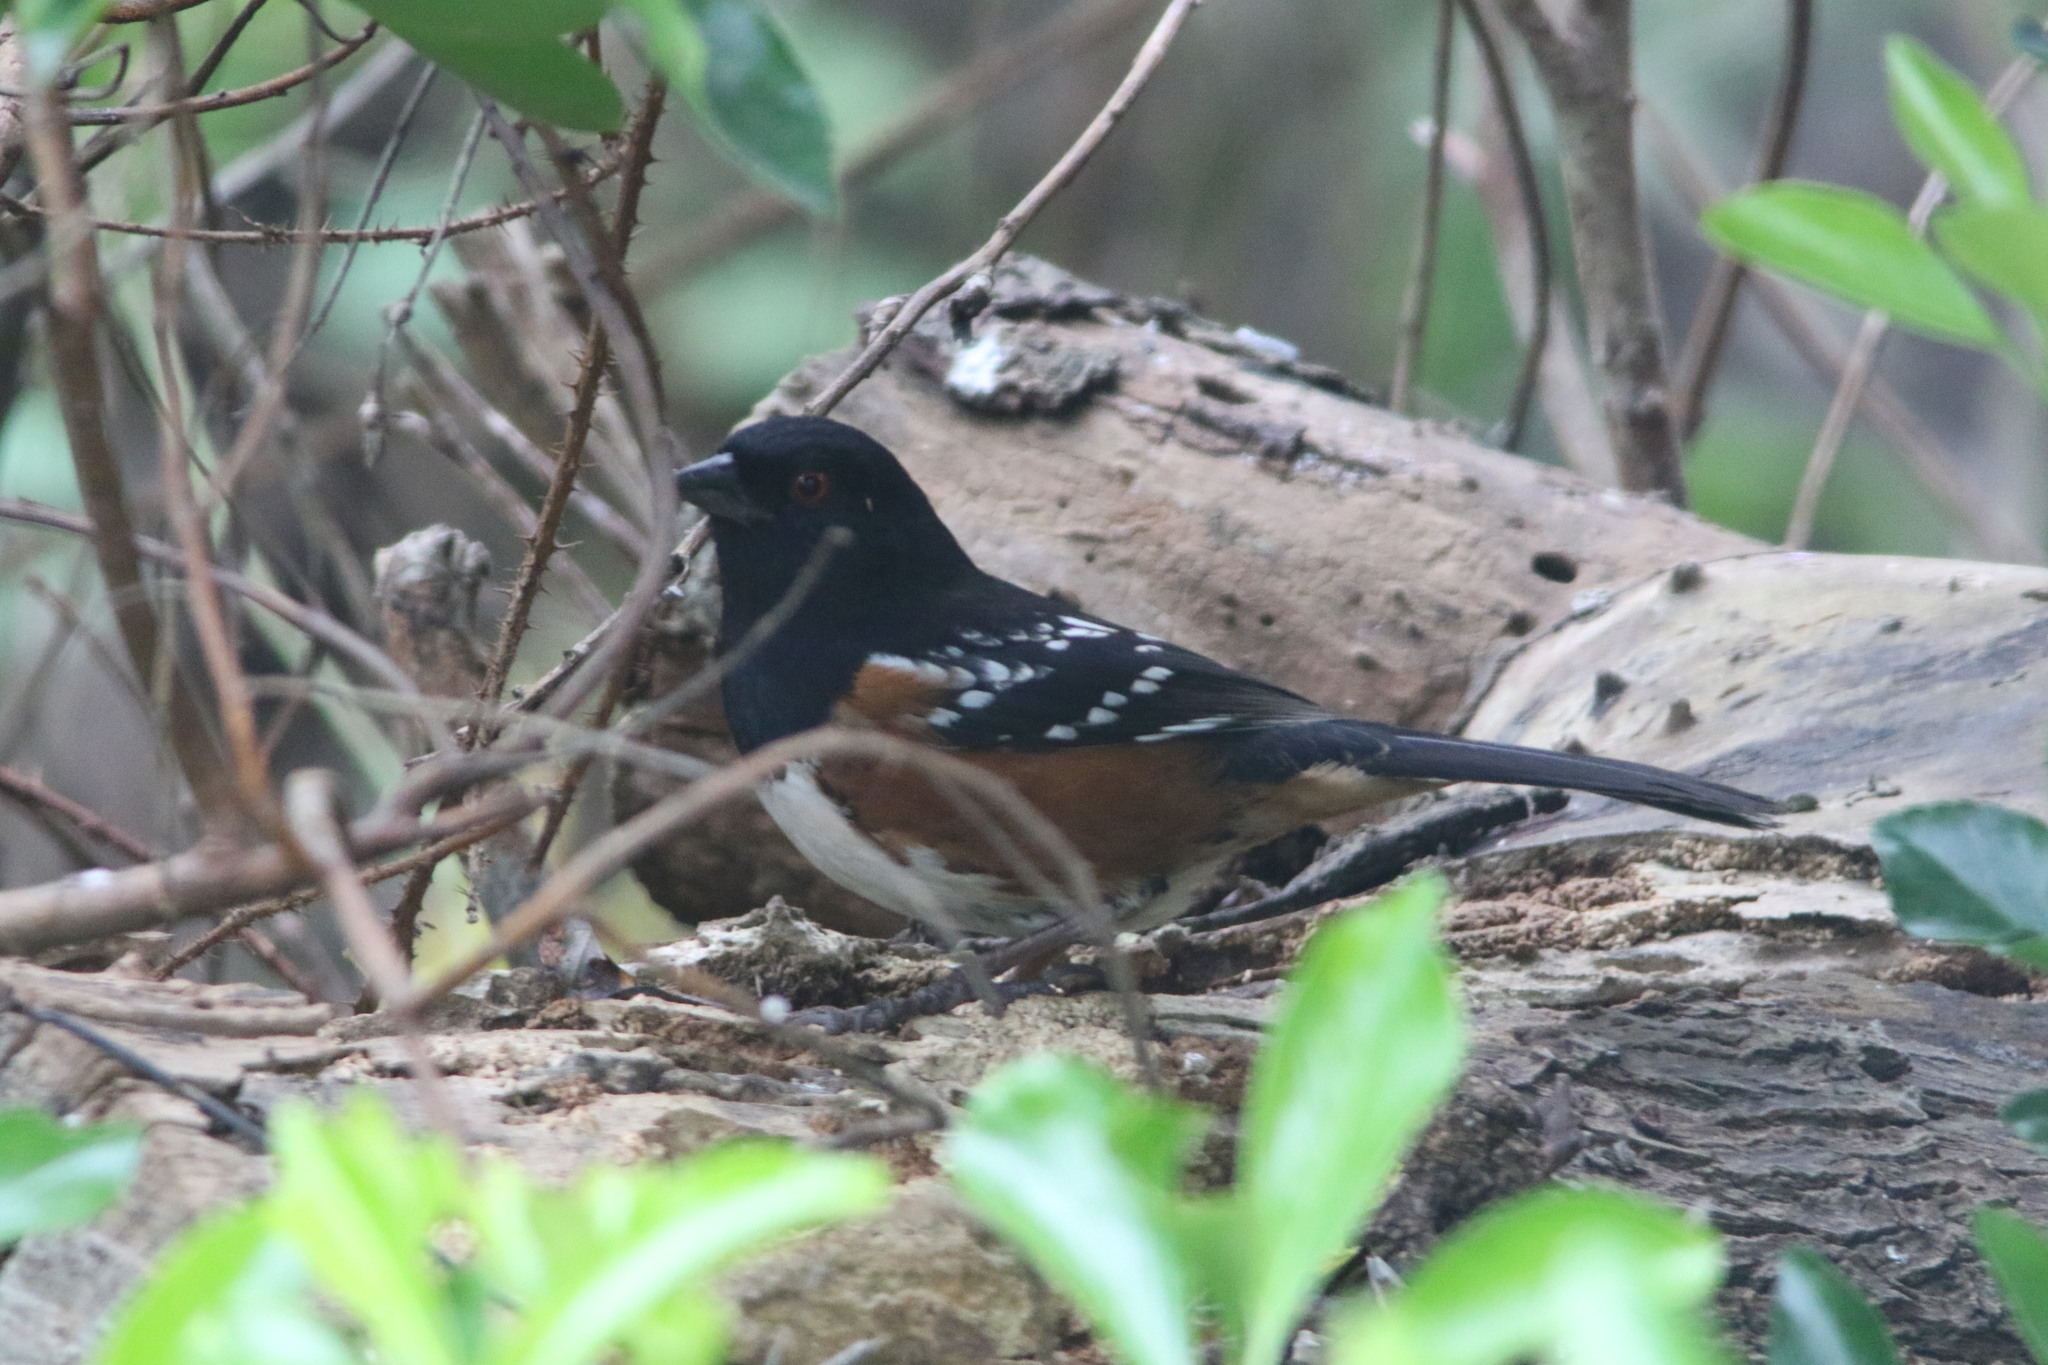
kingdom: Animalia
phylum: Chordata
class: Aves
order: Passeriformes
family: Passerellidae
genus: Pipilo
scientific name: Pipilo maculatus
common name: Spotted towhee
